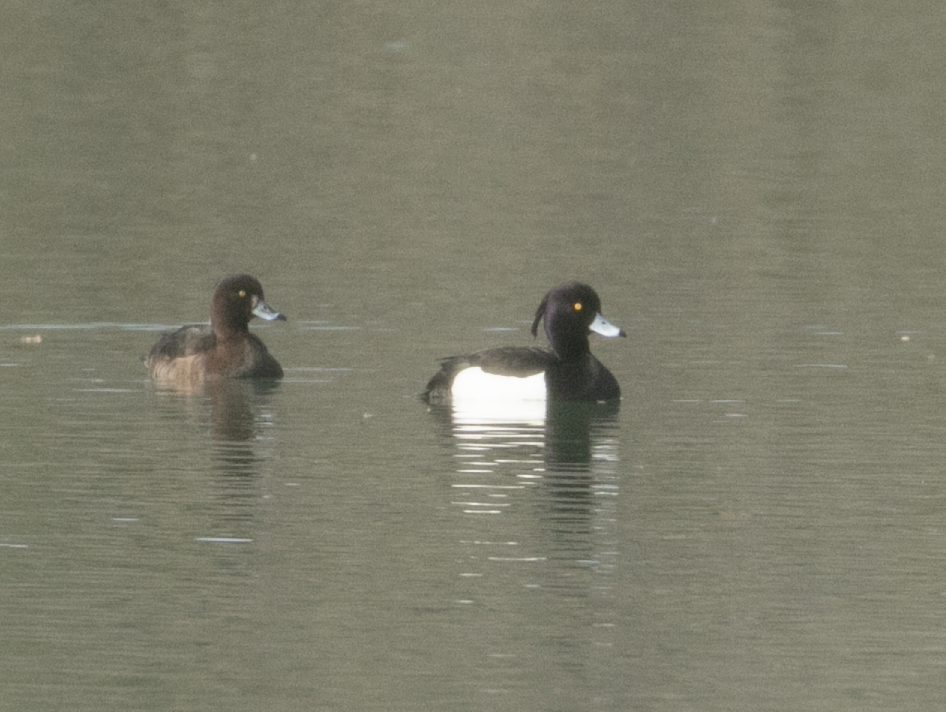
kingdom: Animalia
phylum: Chordata
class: Aves
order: Anseriformes
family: Anatidae
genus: Aythya
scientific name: Aythya fuligula
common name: Tufted duck
